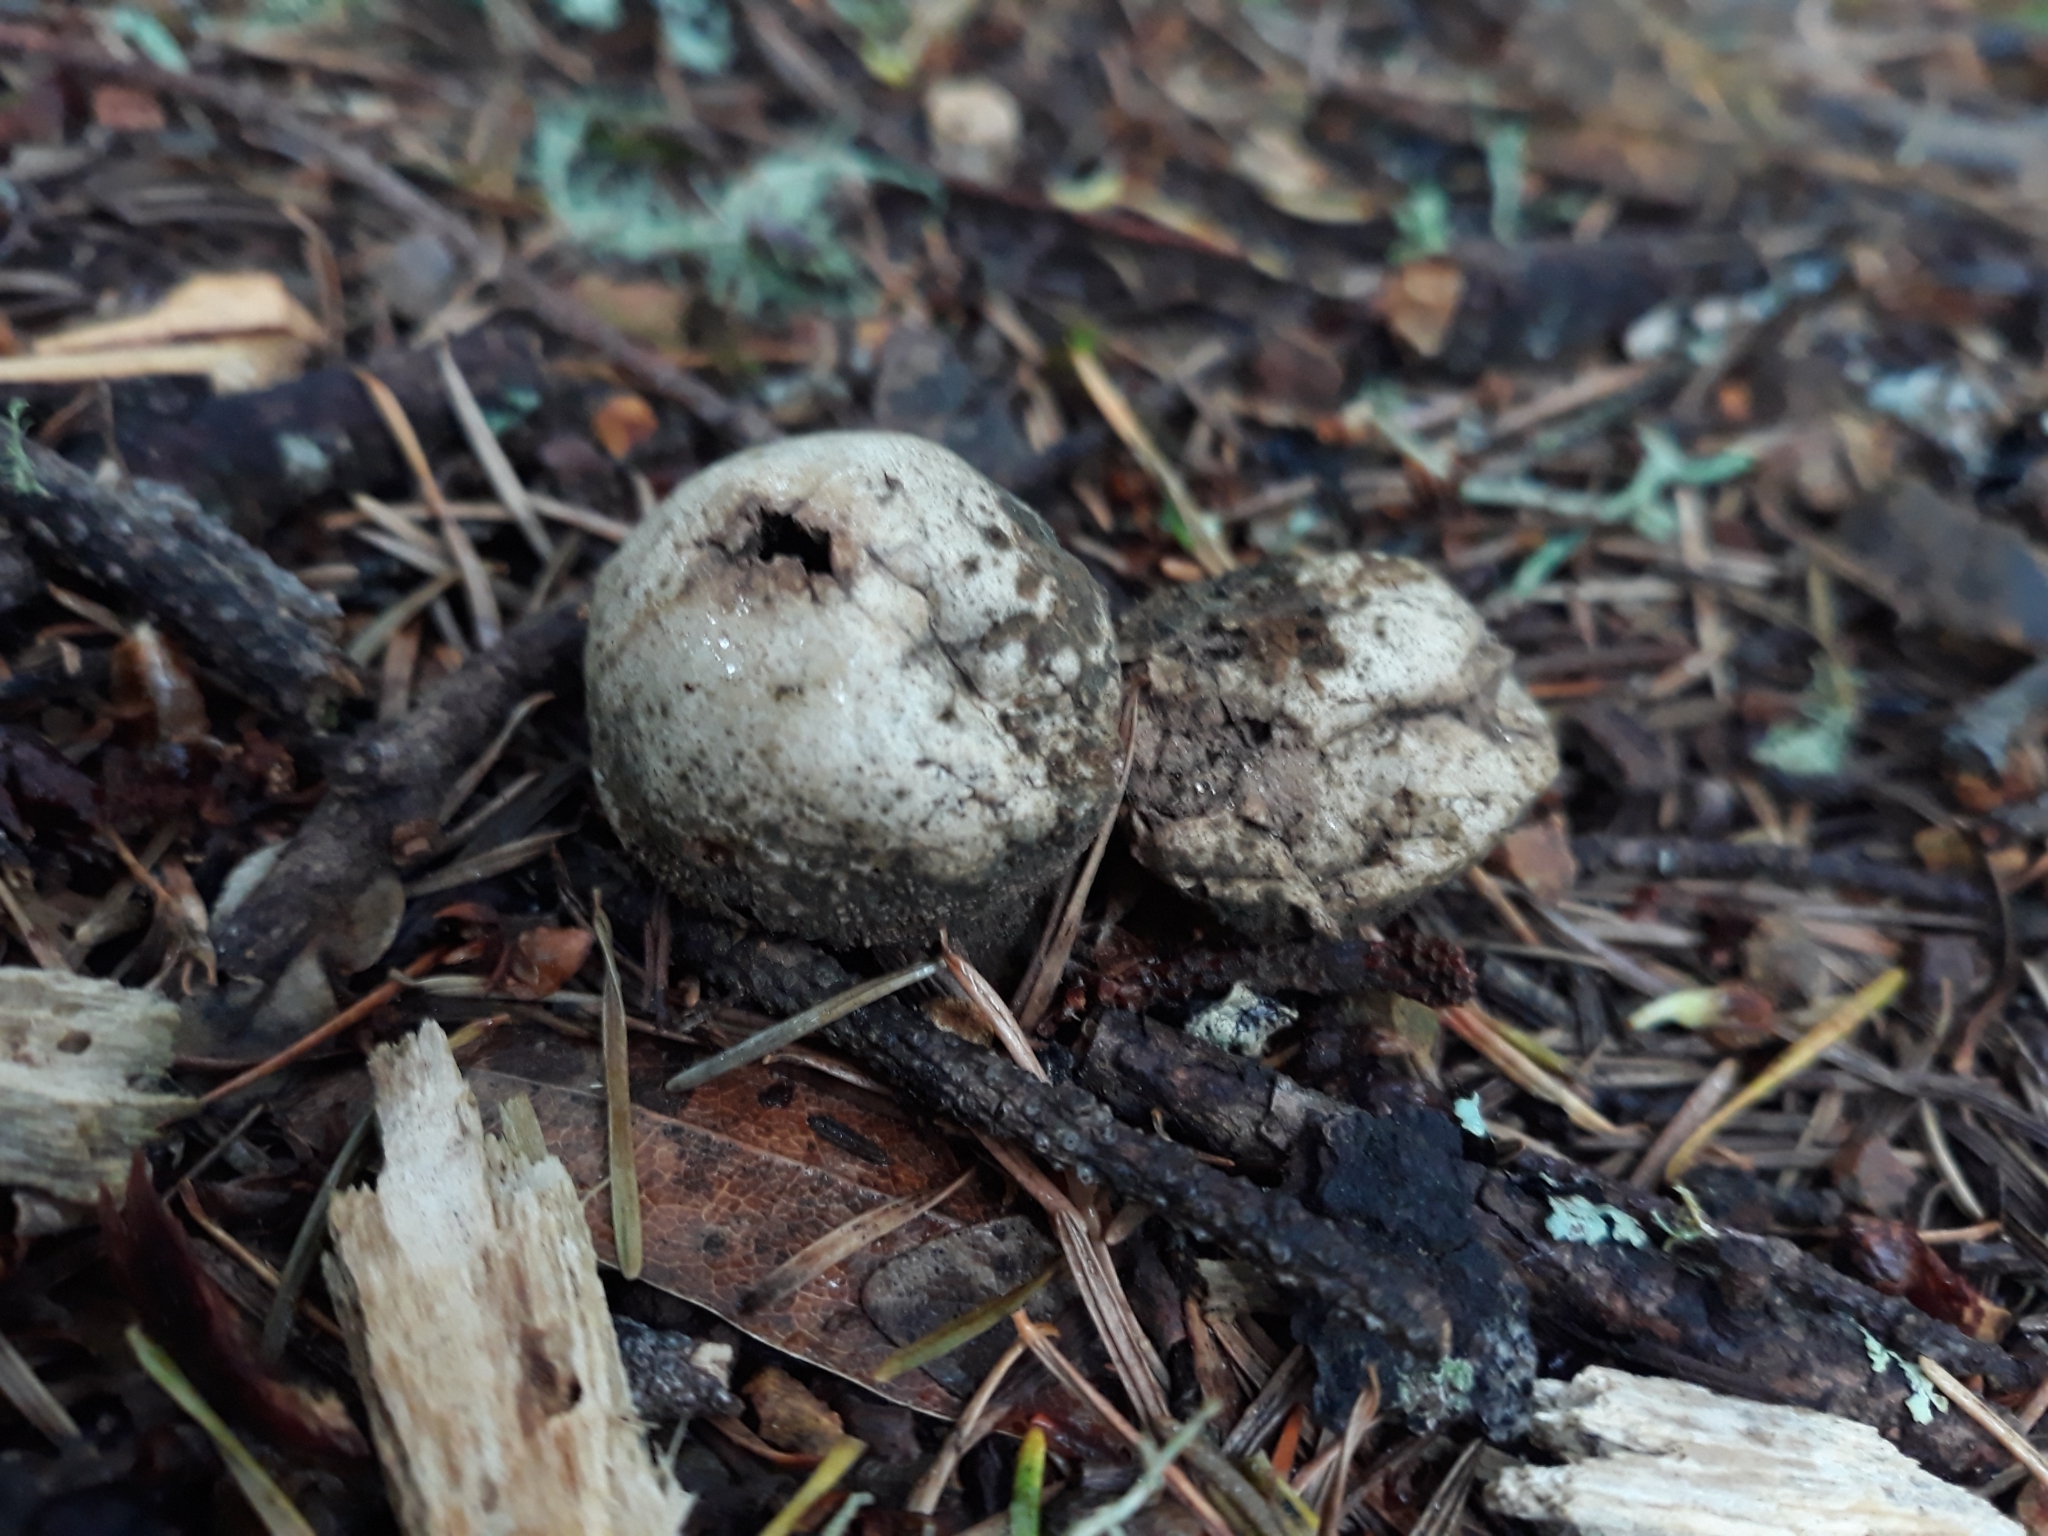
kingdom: Fungi
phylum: Basidiomycota
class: Agaricomycetes
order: Agaricales
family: Lycoperdaceae
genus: Lycoperdon
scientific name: Lycoperdon perlatum
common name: Common puffball
